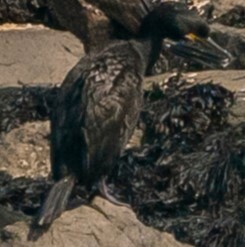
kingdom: Animalia
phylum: Chordata
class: Aves
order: Suliformes
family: Phalacrocoracidae
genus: Phalacrocorax
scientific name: Phalacrocorax aristotelis
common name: European shag
